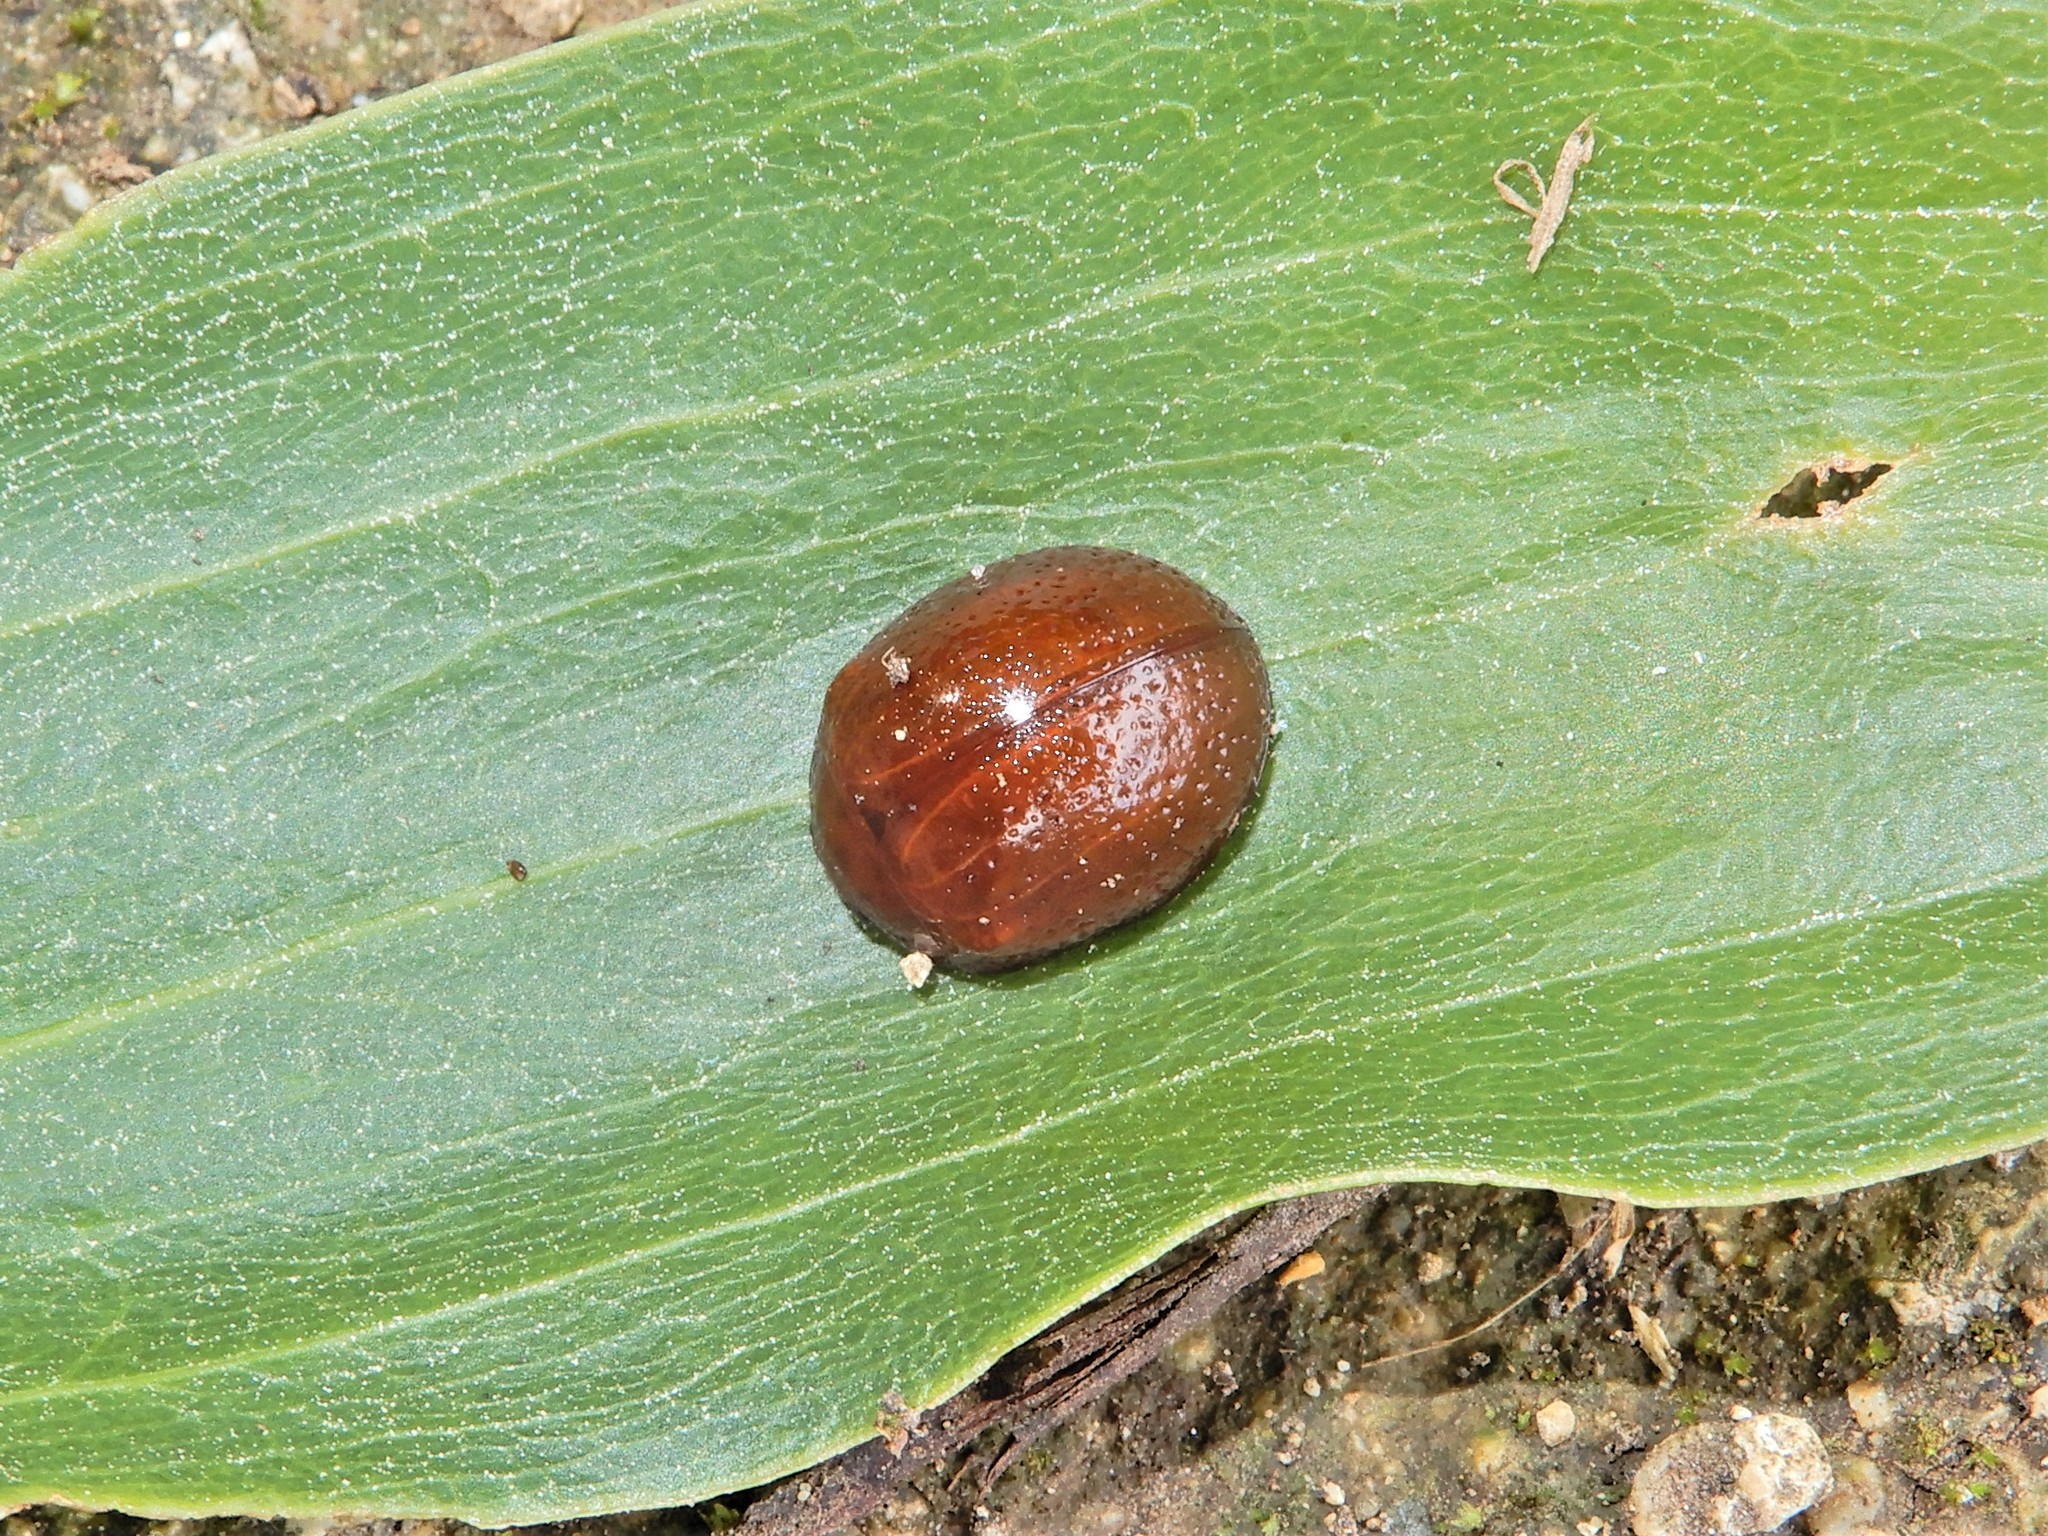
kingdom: Animalia
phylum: Arthropoda
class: Insecta
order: Coleoptera
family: Chrysomelidae
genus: Dicranosterna
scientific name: Dicranosterna
